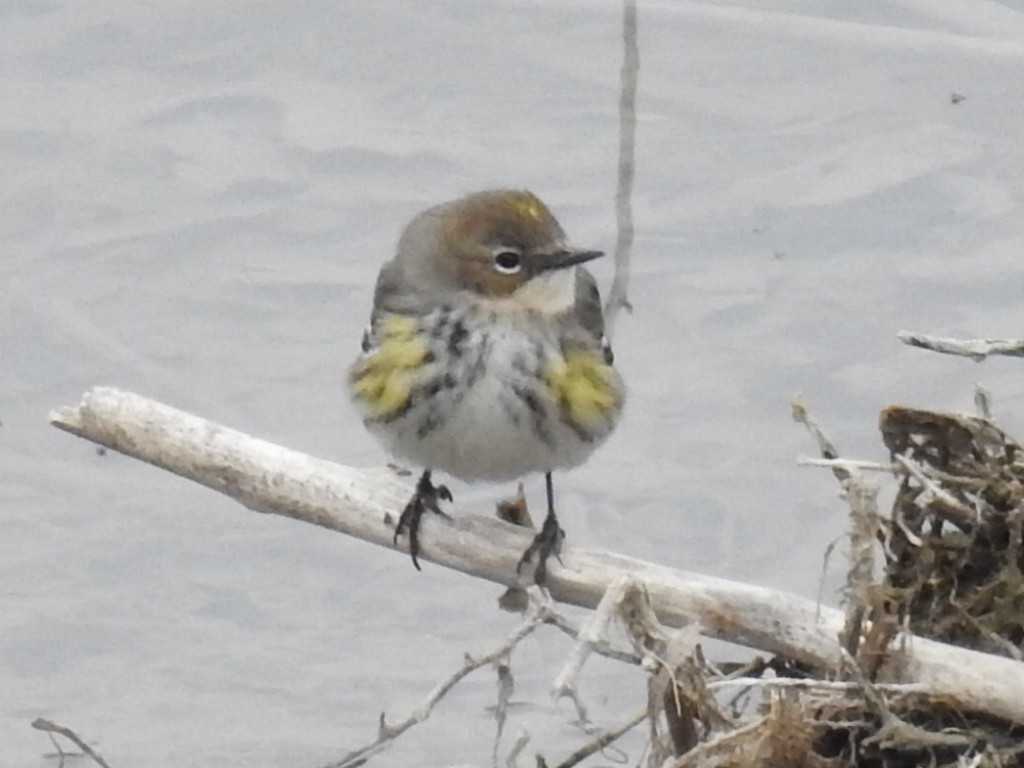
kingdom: Animalia
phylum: Chordata
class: Aves
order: Passeriformes
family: Parulidae
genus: Setophaga
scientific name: Setophaga coronata
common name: Myrtle warbler
